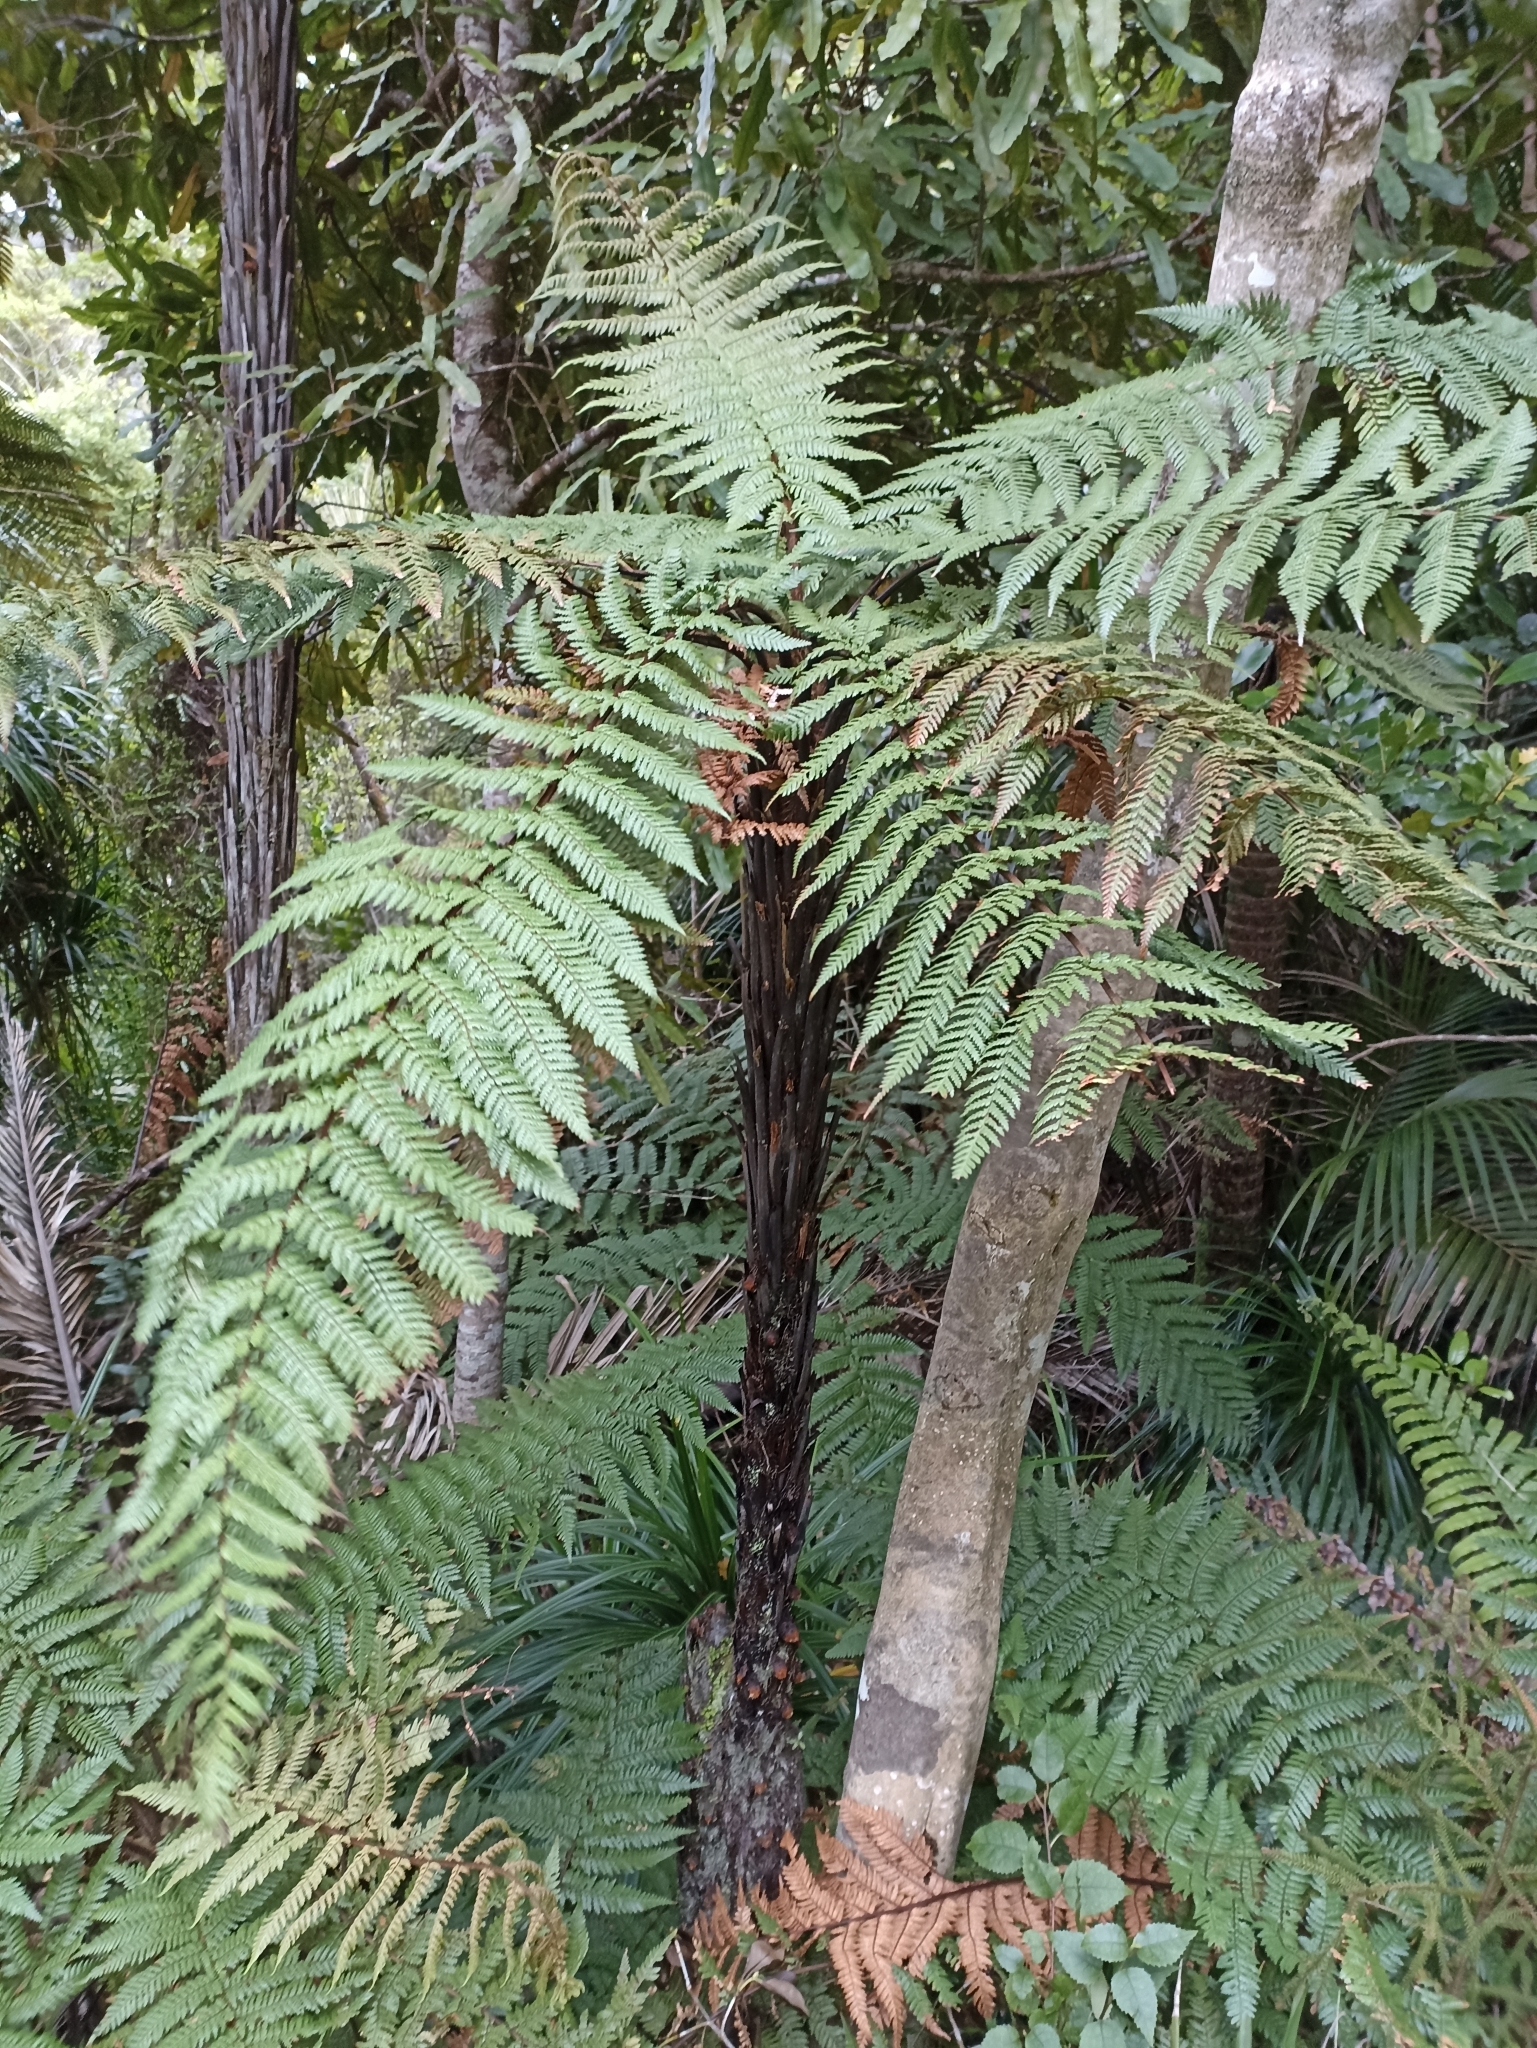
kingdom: Plantae
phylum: Tracheophyta
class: Polypodiopsida
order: Cyatheales
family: Dicksoniaceae
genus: Dicksonia
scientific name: Dicksonia squarrosa
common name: Hard treefern
